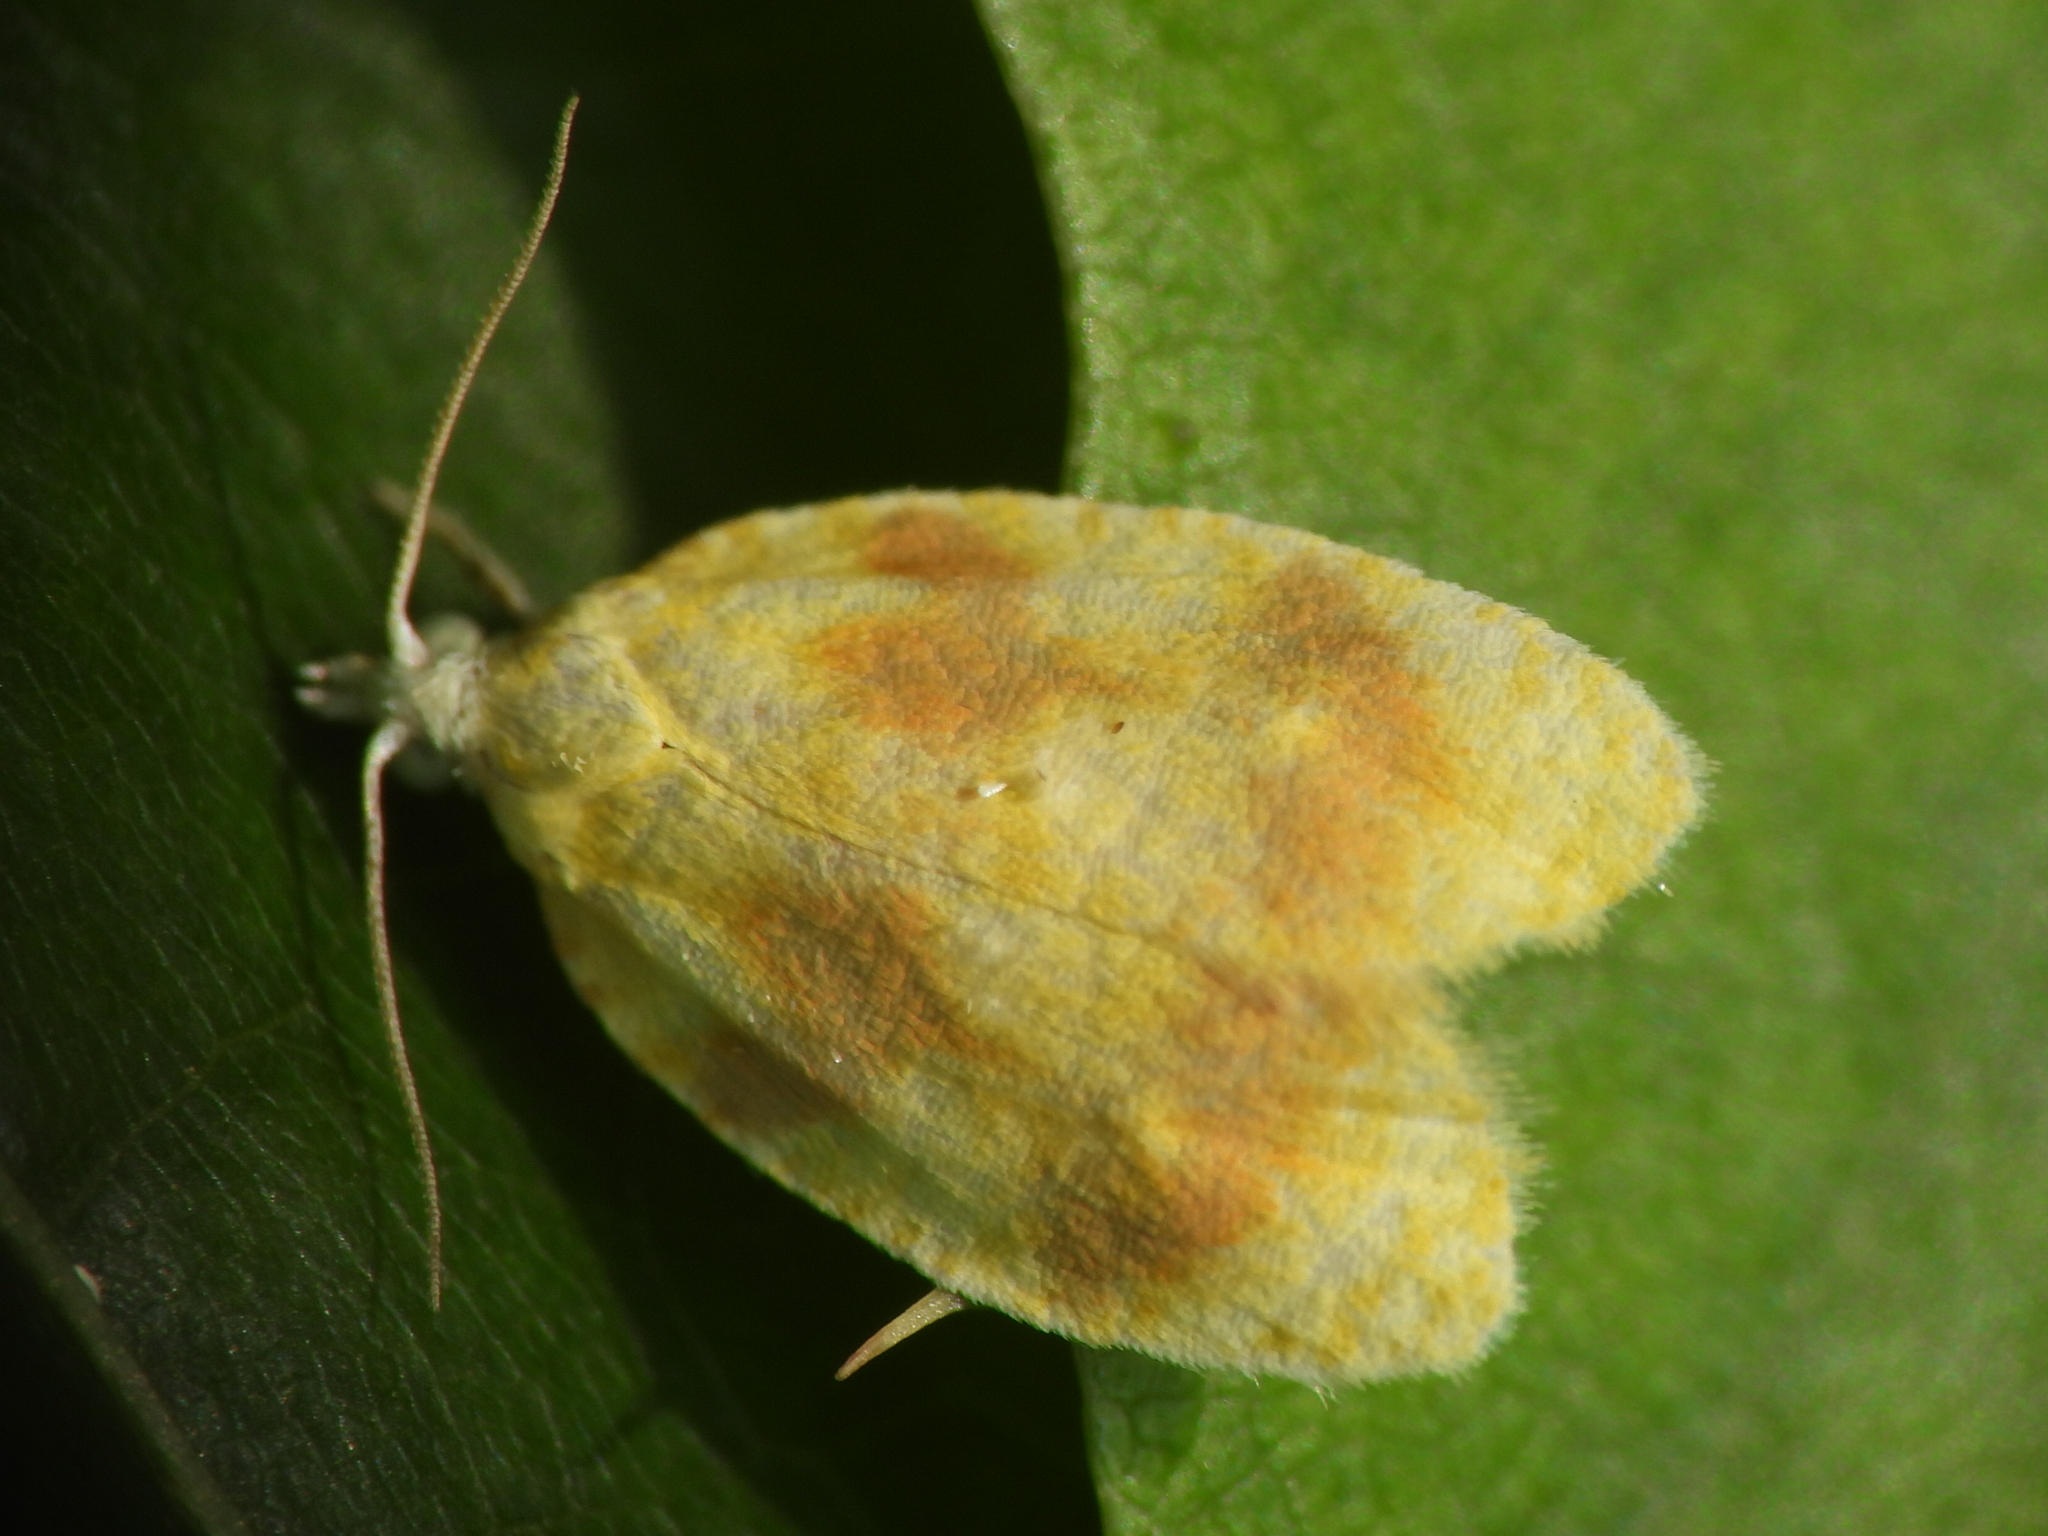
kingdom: Animalia
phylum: Arthropoda
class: Insecta
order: Lepidoptera
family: Tortricidae
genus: Acleris
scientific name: Acleris semipurpurana
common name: Oak leaftier moth
